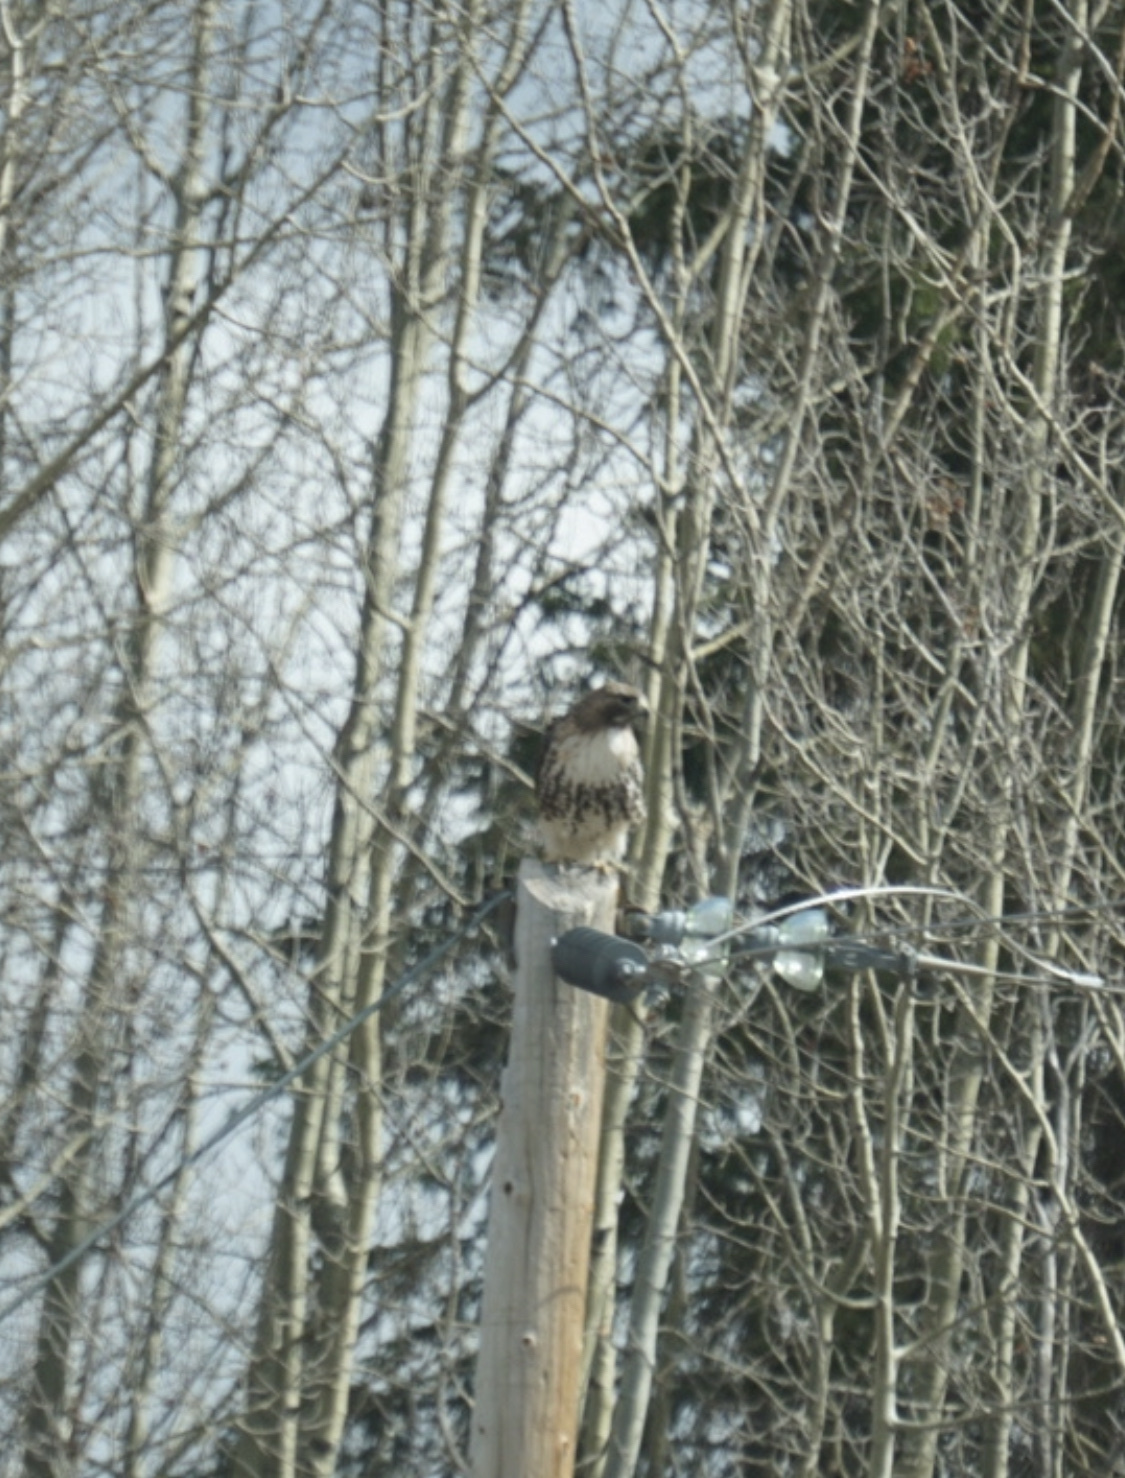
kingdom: Animalia
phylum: Chordata
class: Aves
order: Accipitriformes
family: Accipitridae
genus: Buteo
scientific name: Buteo jamaicensis
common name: Red-tailed hawk
